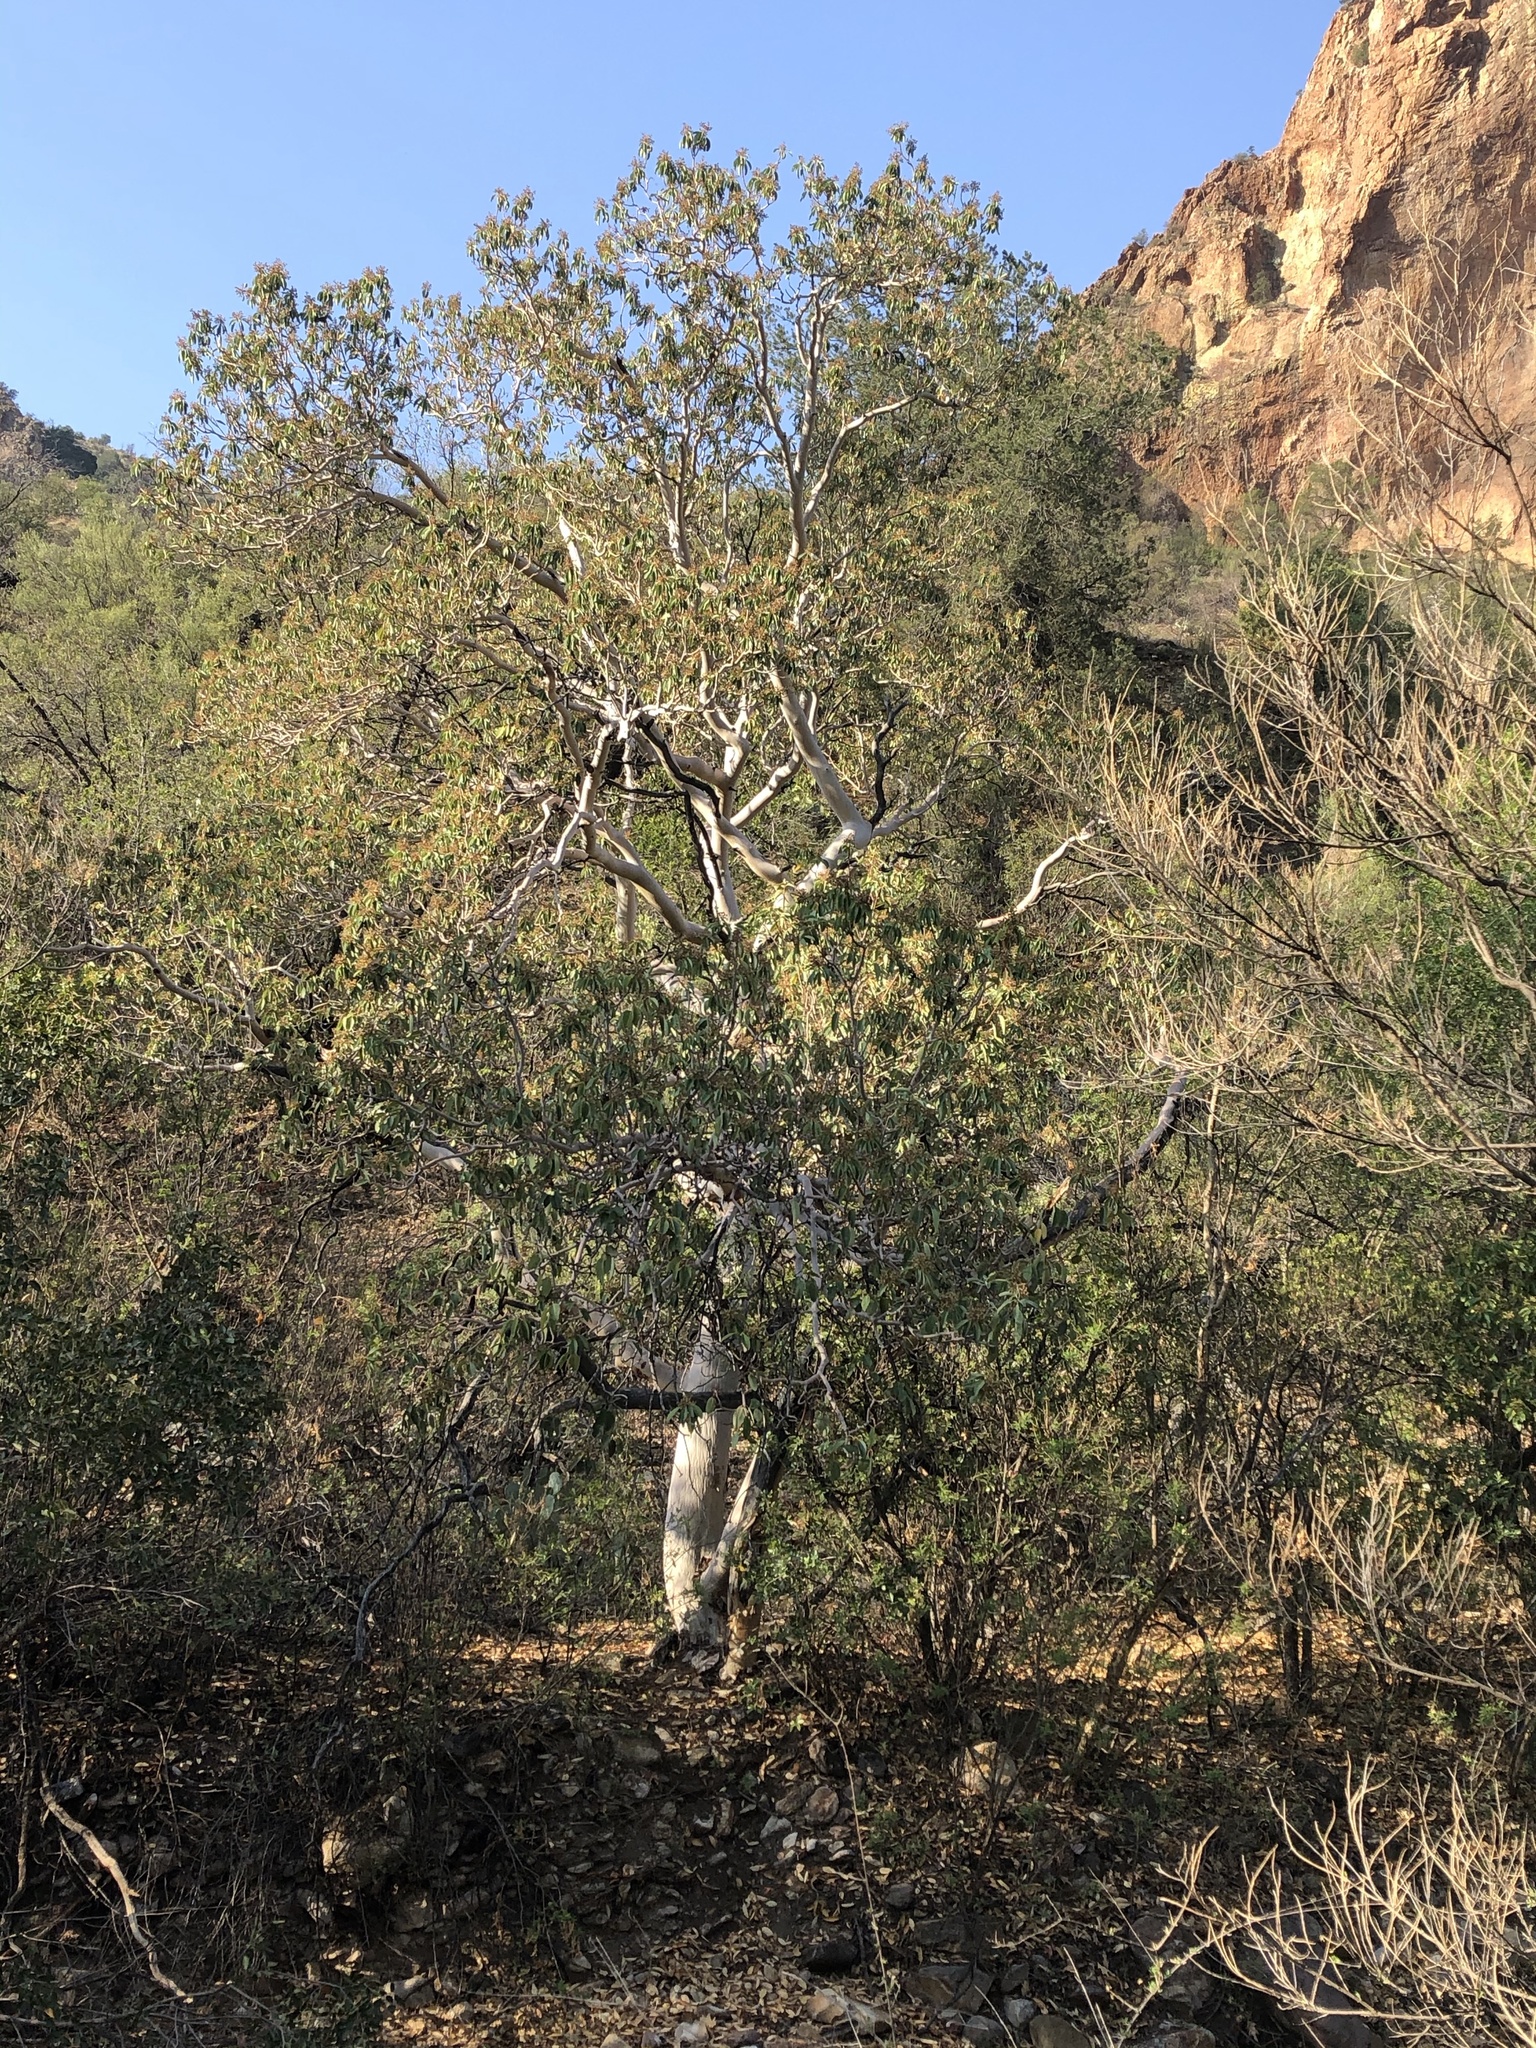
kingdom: Plantae
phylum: Tracheophyta
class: Magnoliopsida
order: Ericales
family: Ericaceae
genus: Arbutus
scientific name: Arbutus xalapensis
